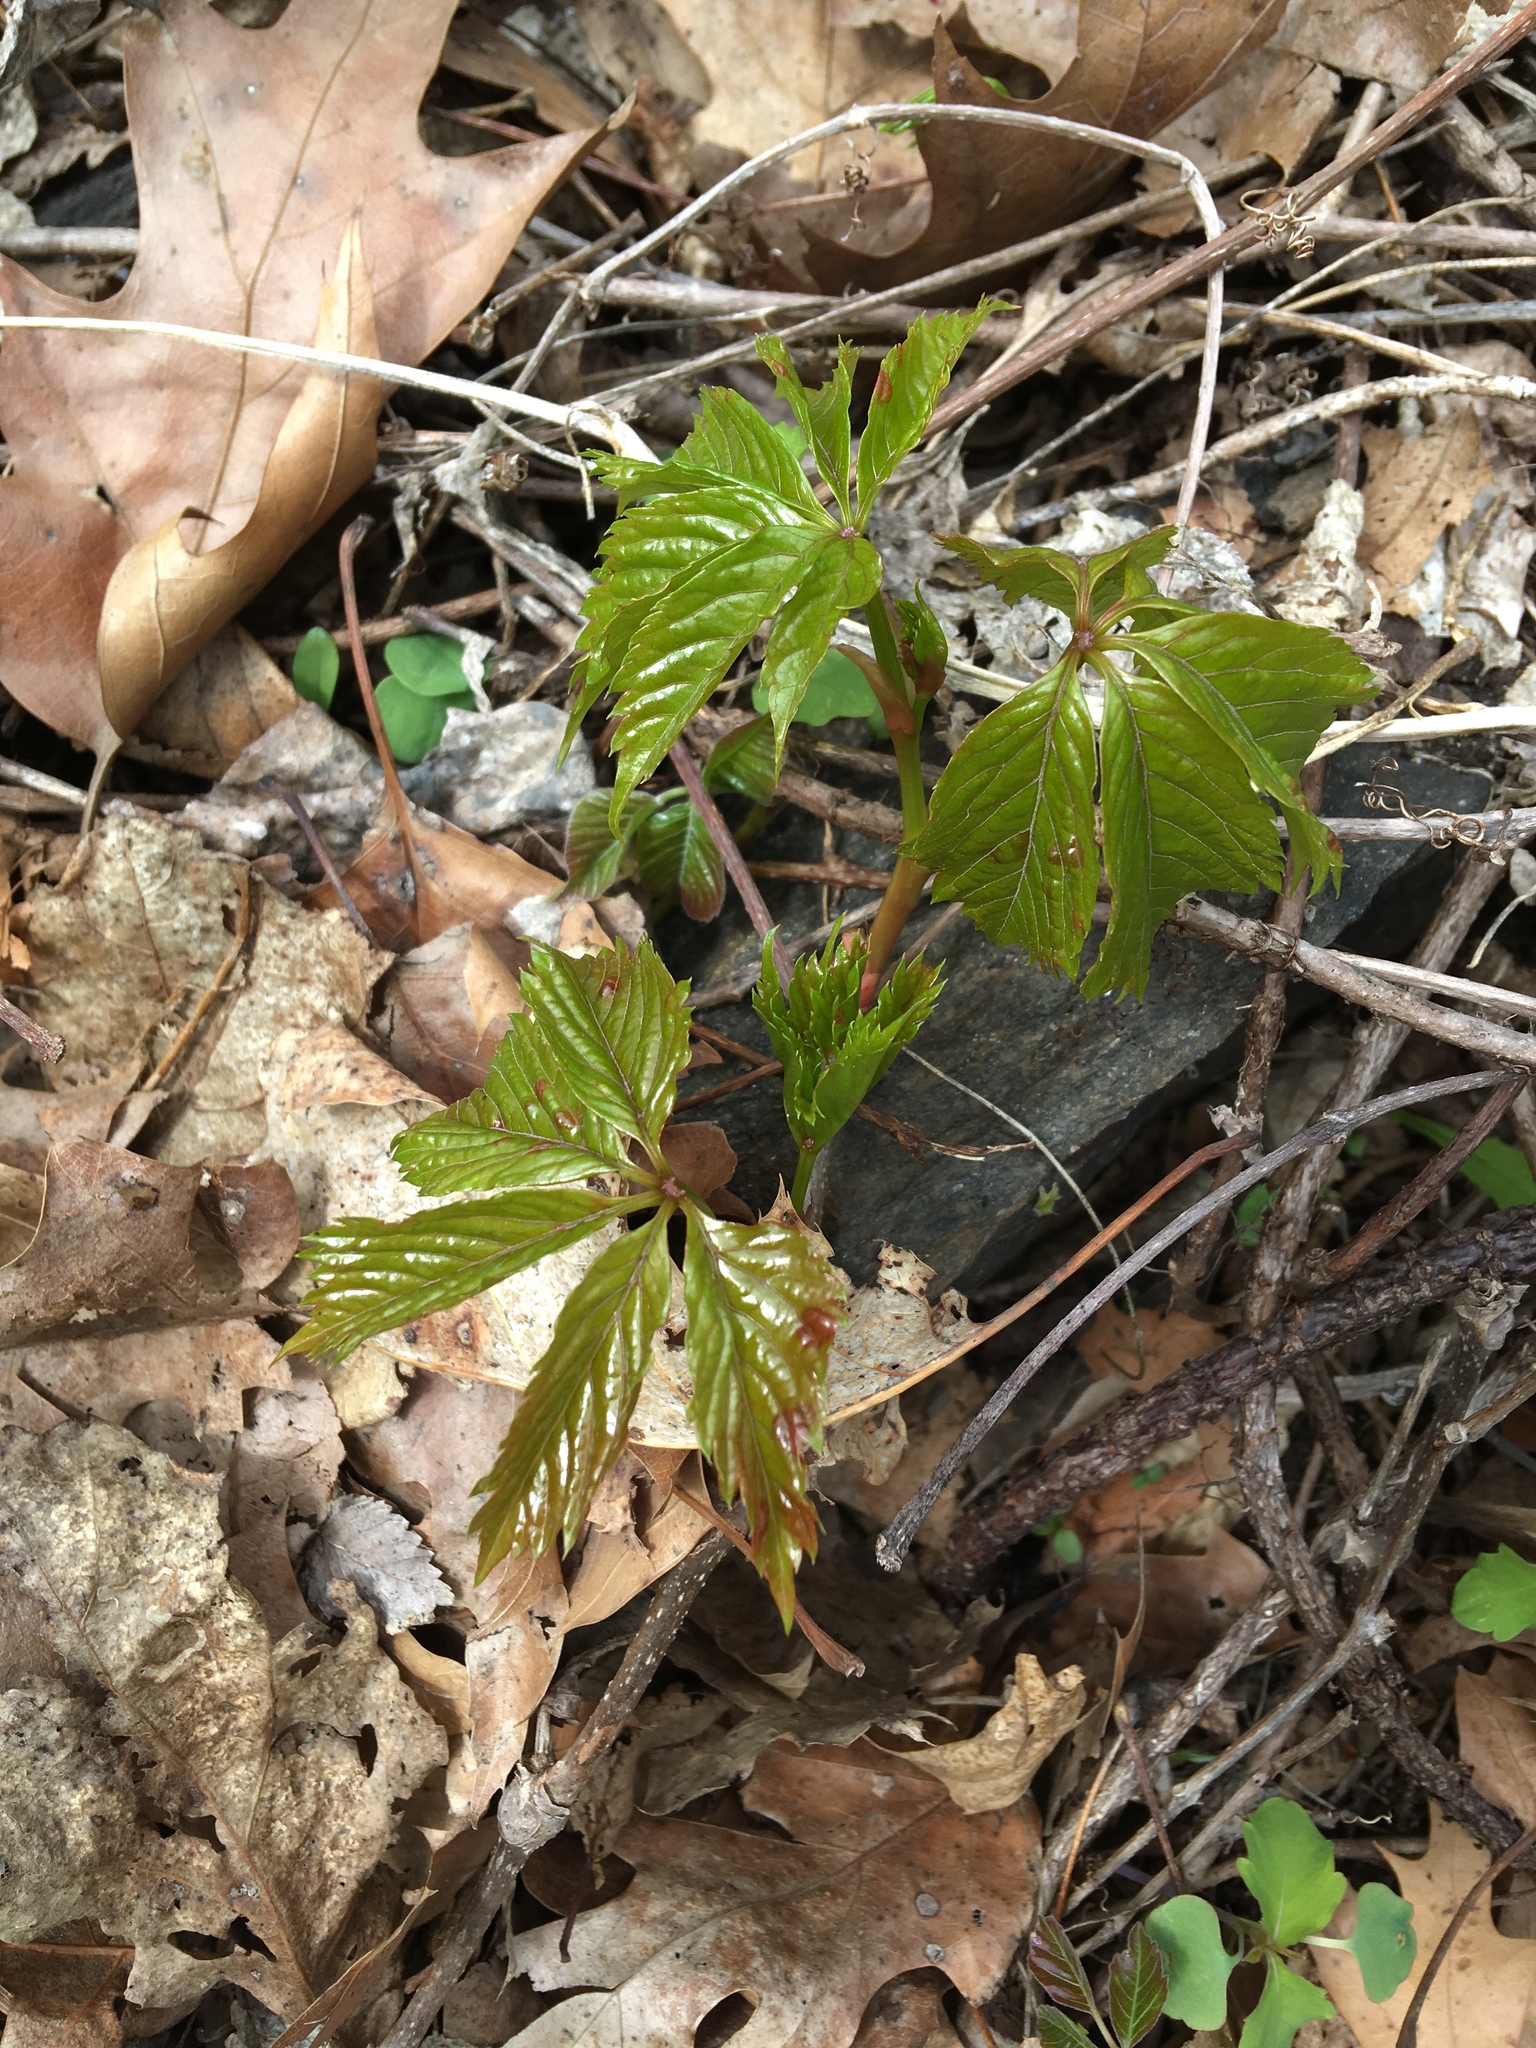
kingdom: Plantae
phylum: Tracheophyta
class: Magnoliopsida
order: Vitales
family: Vitaceae
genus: Parthenocissus
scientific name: Parthenocissus quinquefolia
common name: Virginia-creeper
